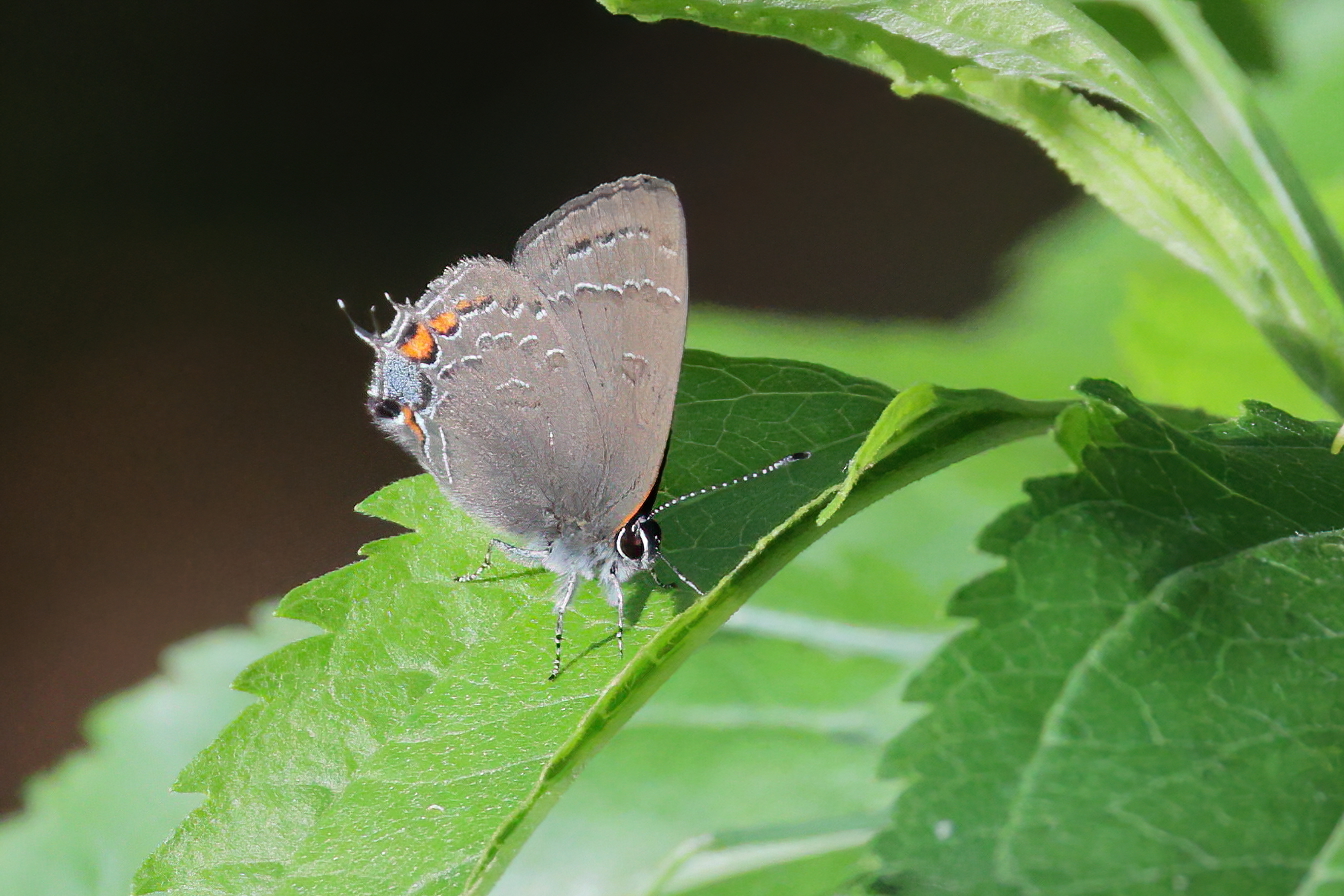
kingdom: Animalia
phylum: Arthropoda
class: Insecta
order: Lepidoptera
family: Lycaenidae
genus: Satyrium
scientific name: Satyrium calanus
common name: Banded hairstreak
